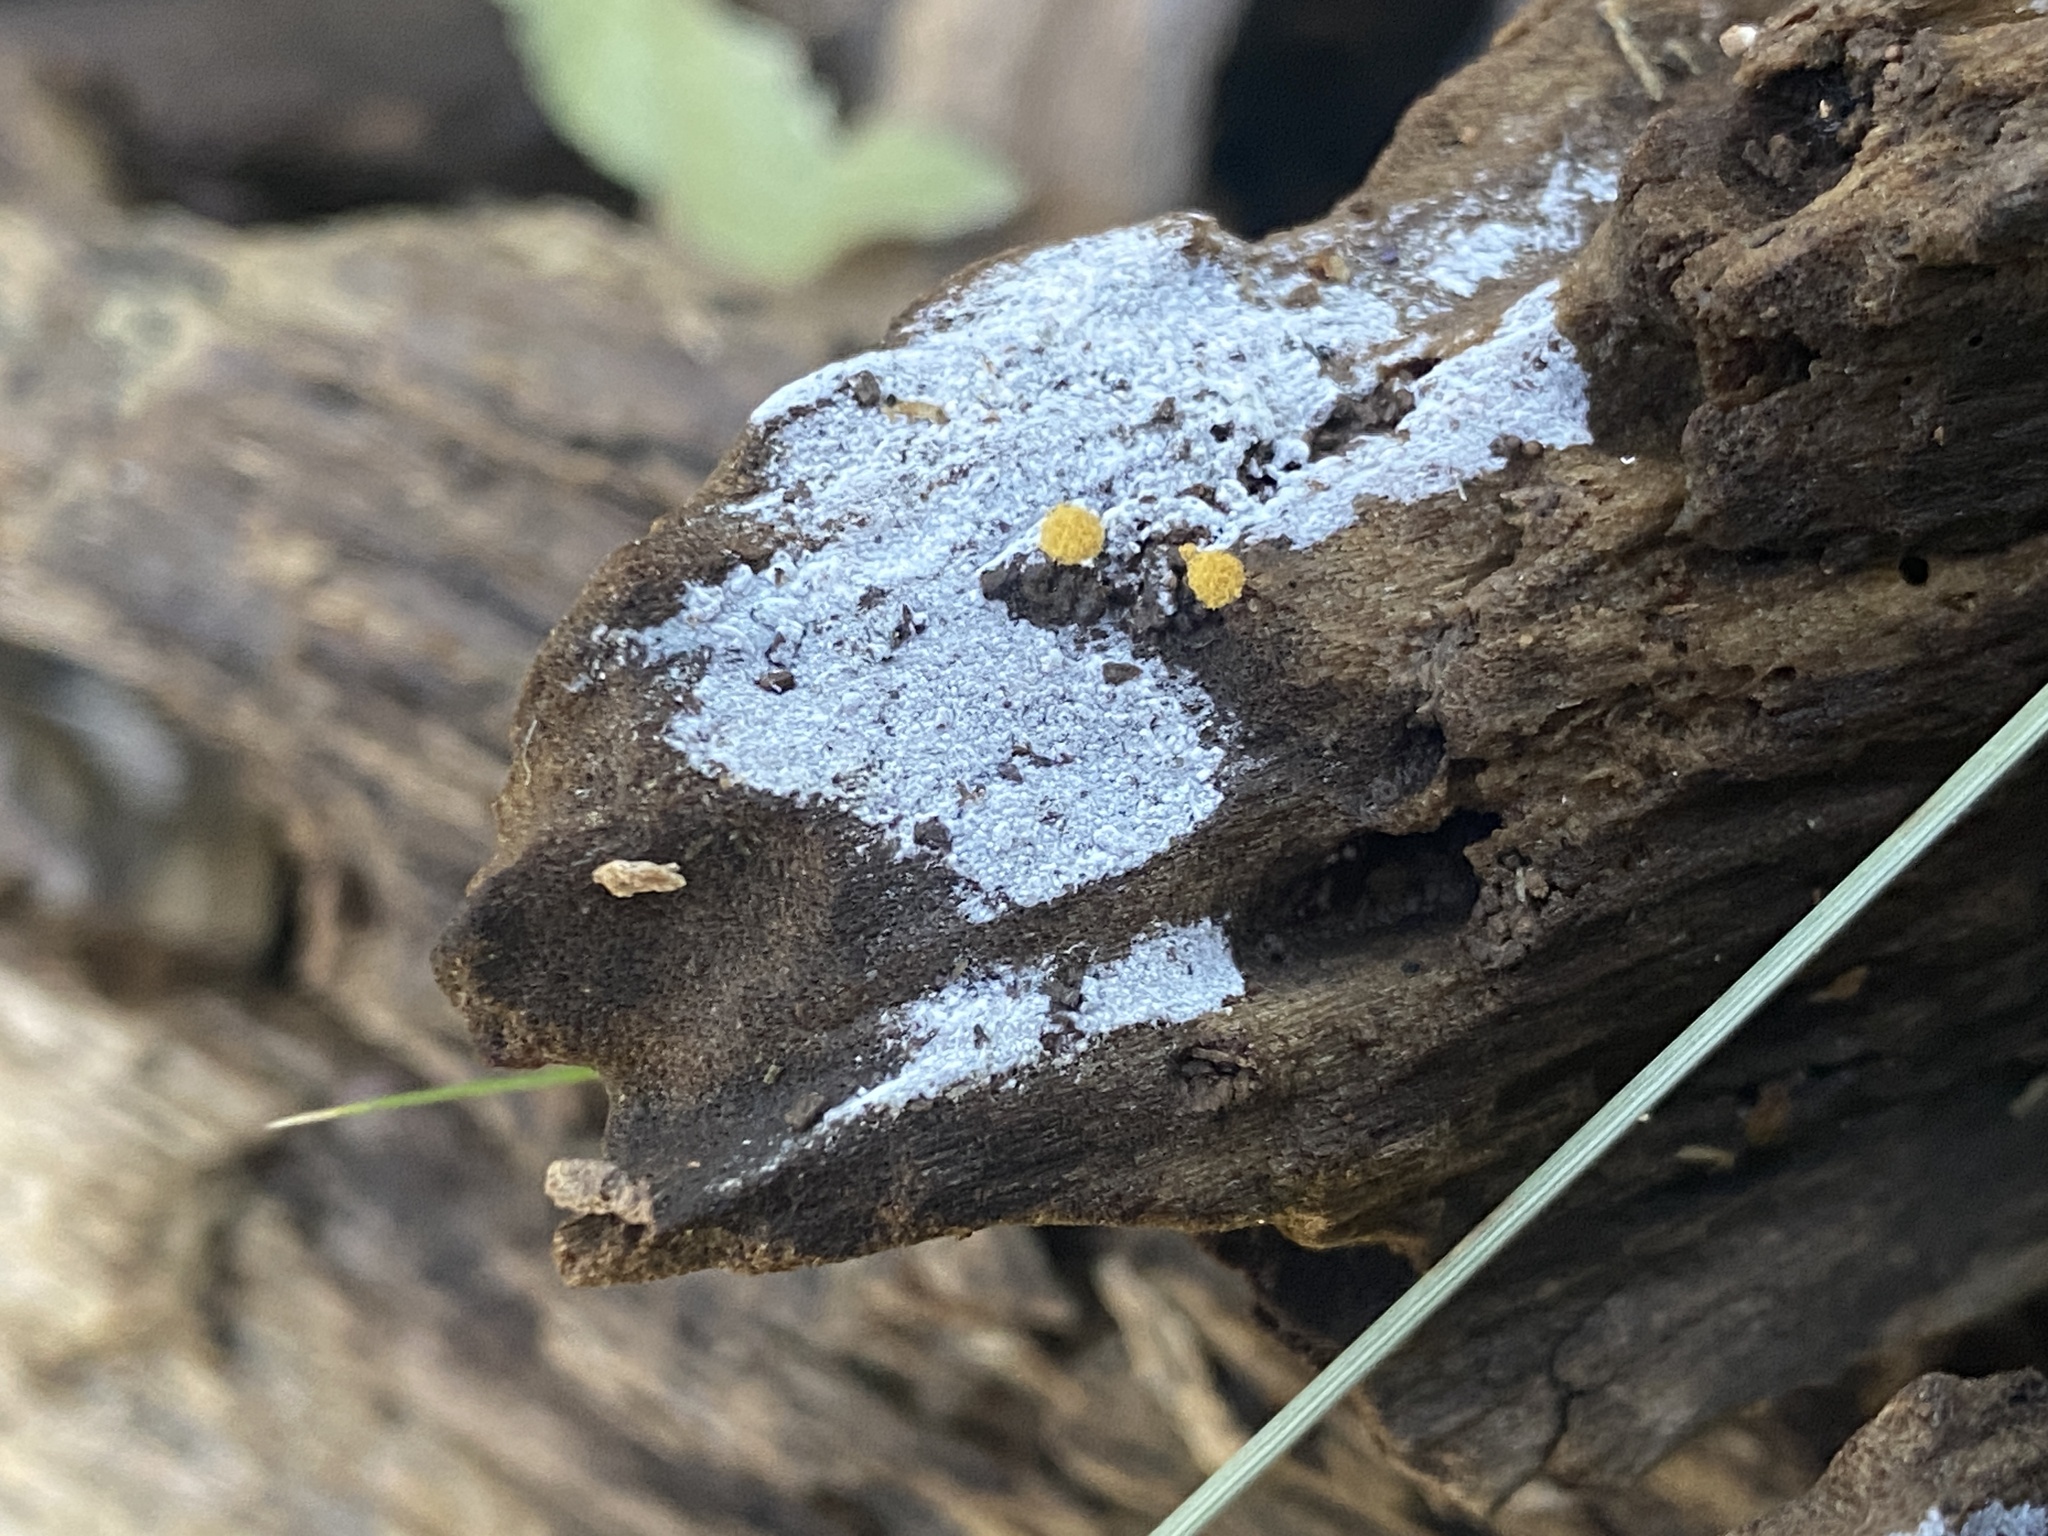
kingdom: Protozoa
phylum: Mycetozoa
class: Myxomycetes
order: Trichiales
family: Arcyriaceae
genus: Hemitrichia
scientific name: Hemitrichia calyculata
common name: Push pin slime mold
